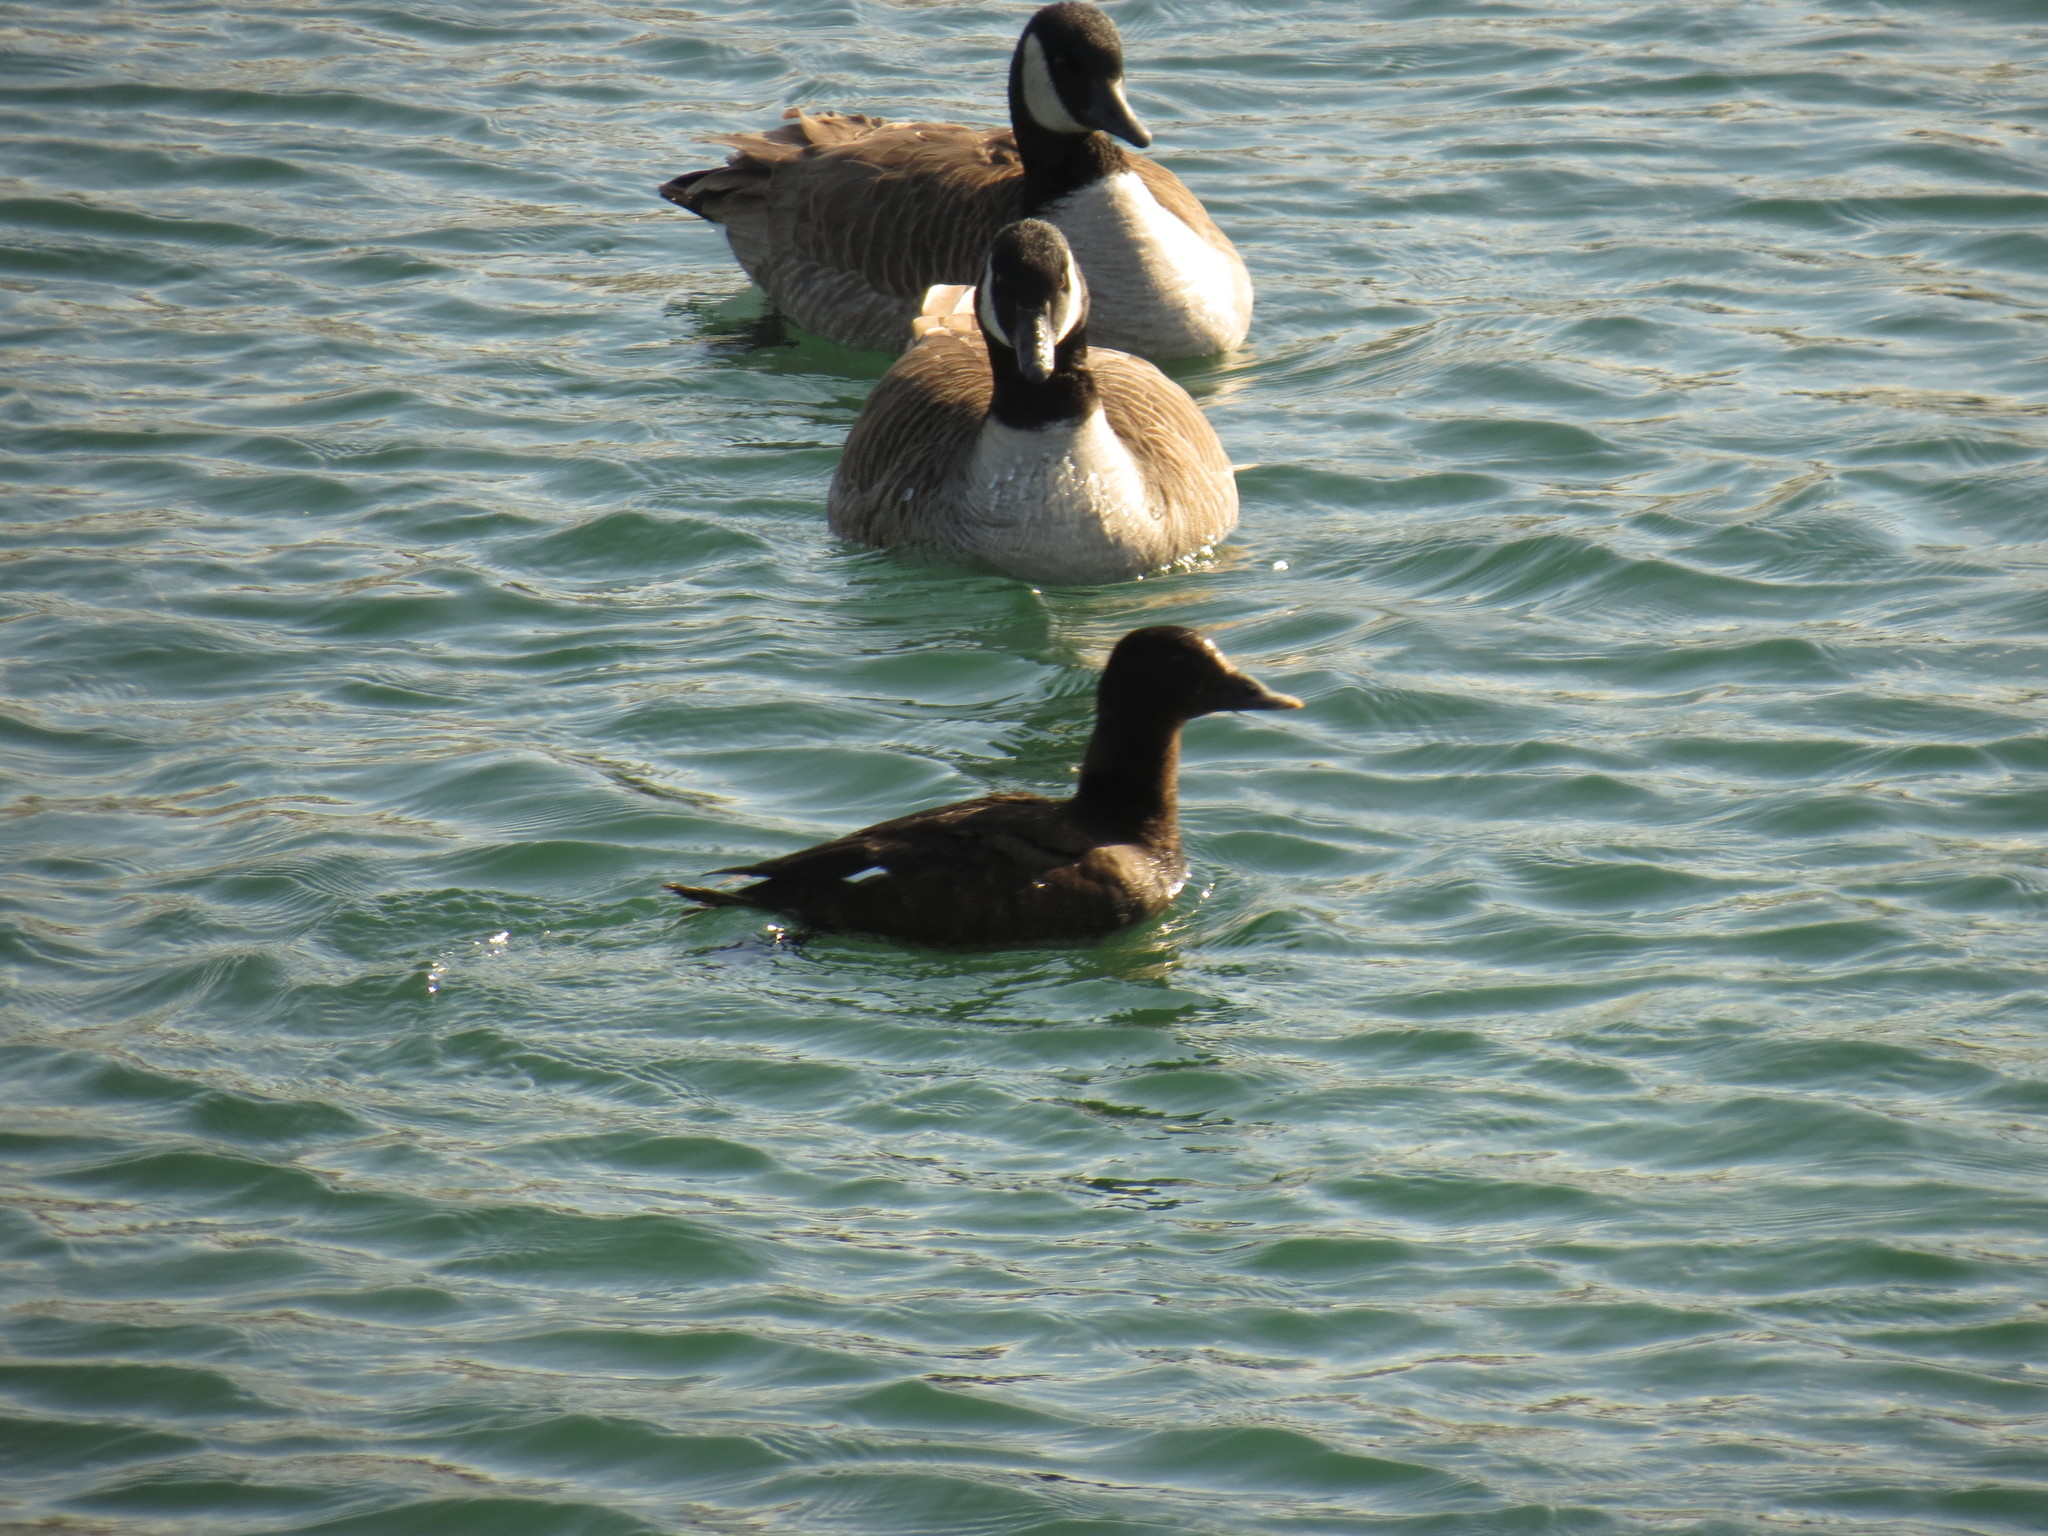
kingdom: Animalia
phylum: Chordata
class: Aves
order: Anseriformes
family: Anatidae
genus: Melanitta
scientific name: Melanitta deglandi
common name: White-winged scoter
